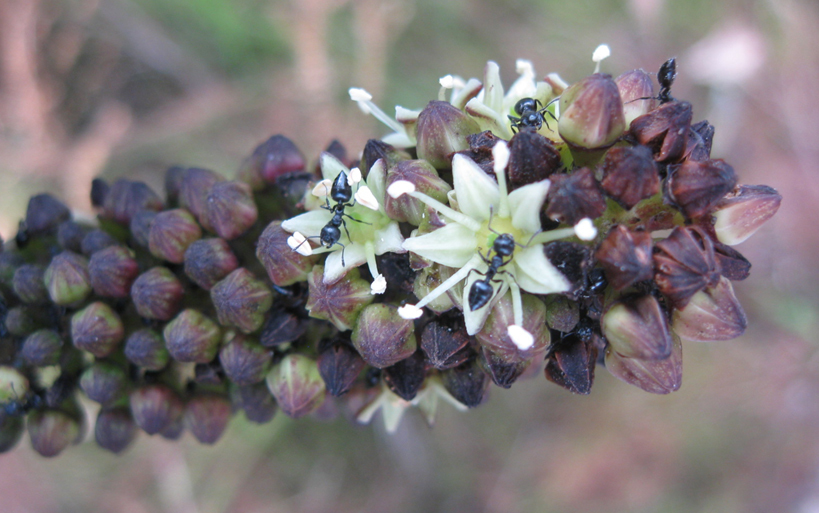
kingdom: Plantae
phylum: Tracheophyta
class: Magnoliopsida
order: Apiales
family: Araliaceae
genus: Cussonia
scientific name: Cussonia thyrsiflora
